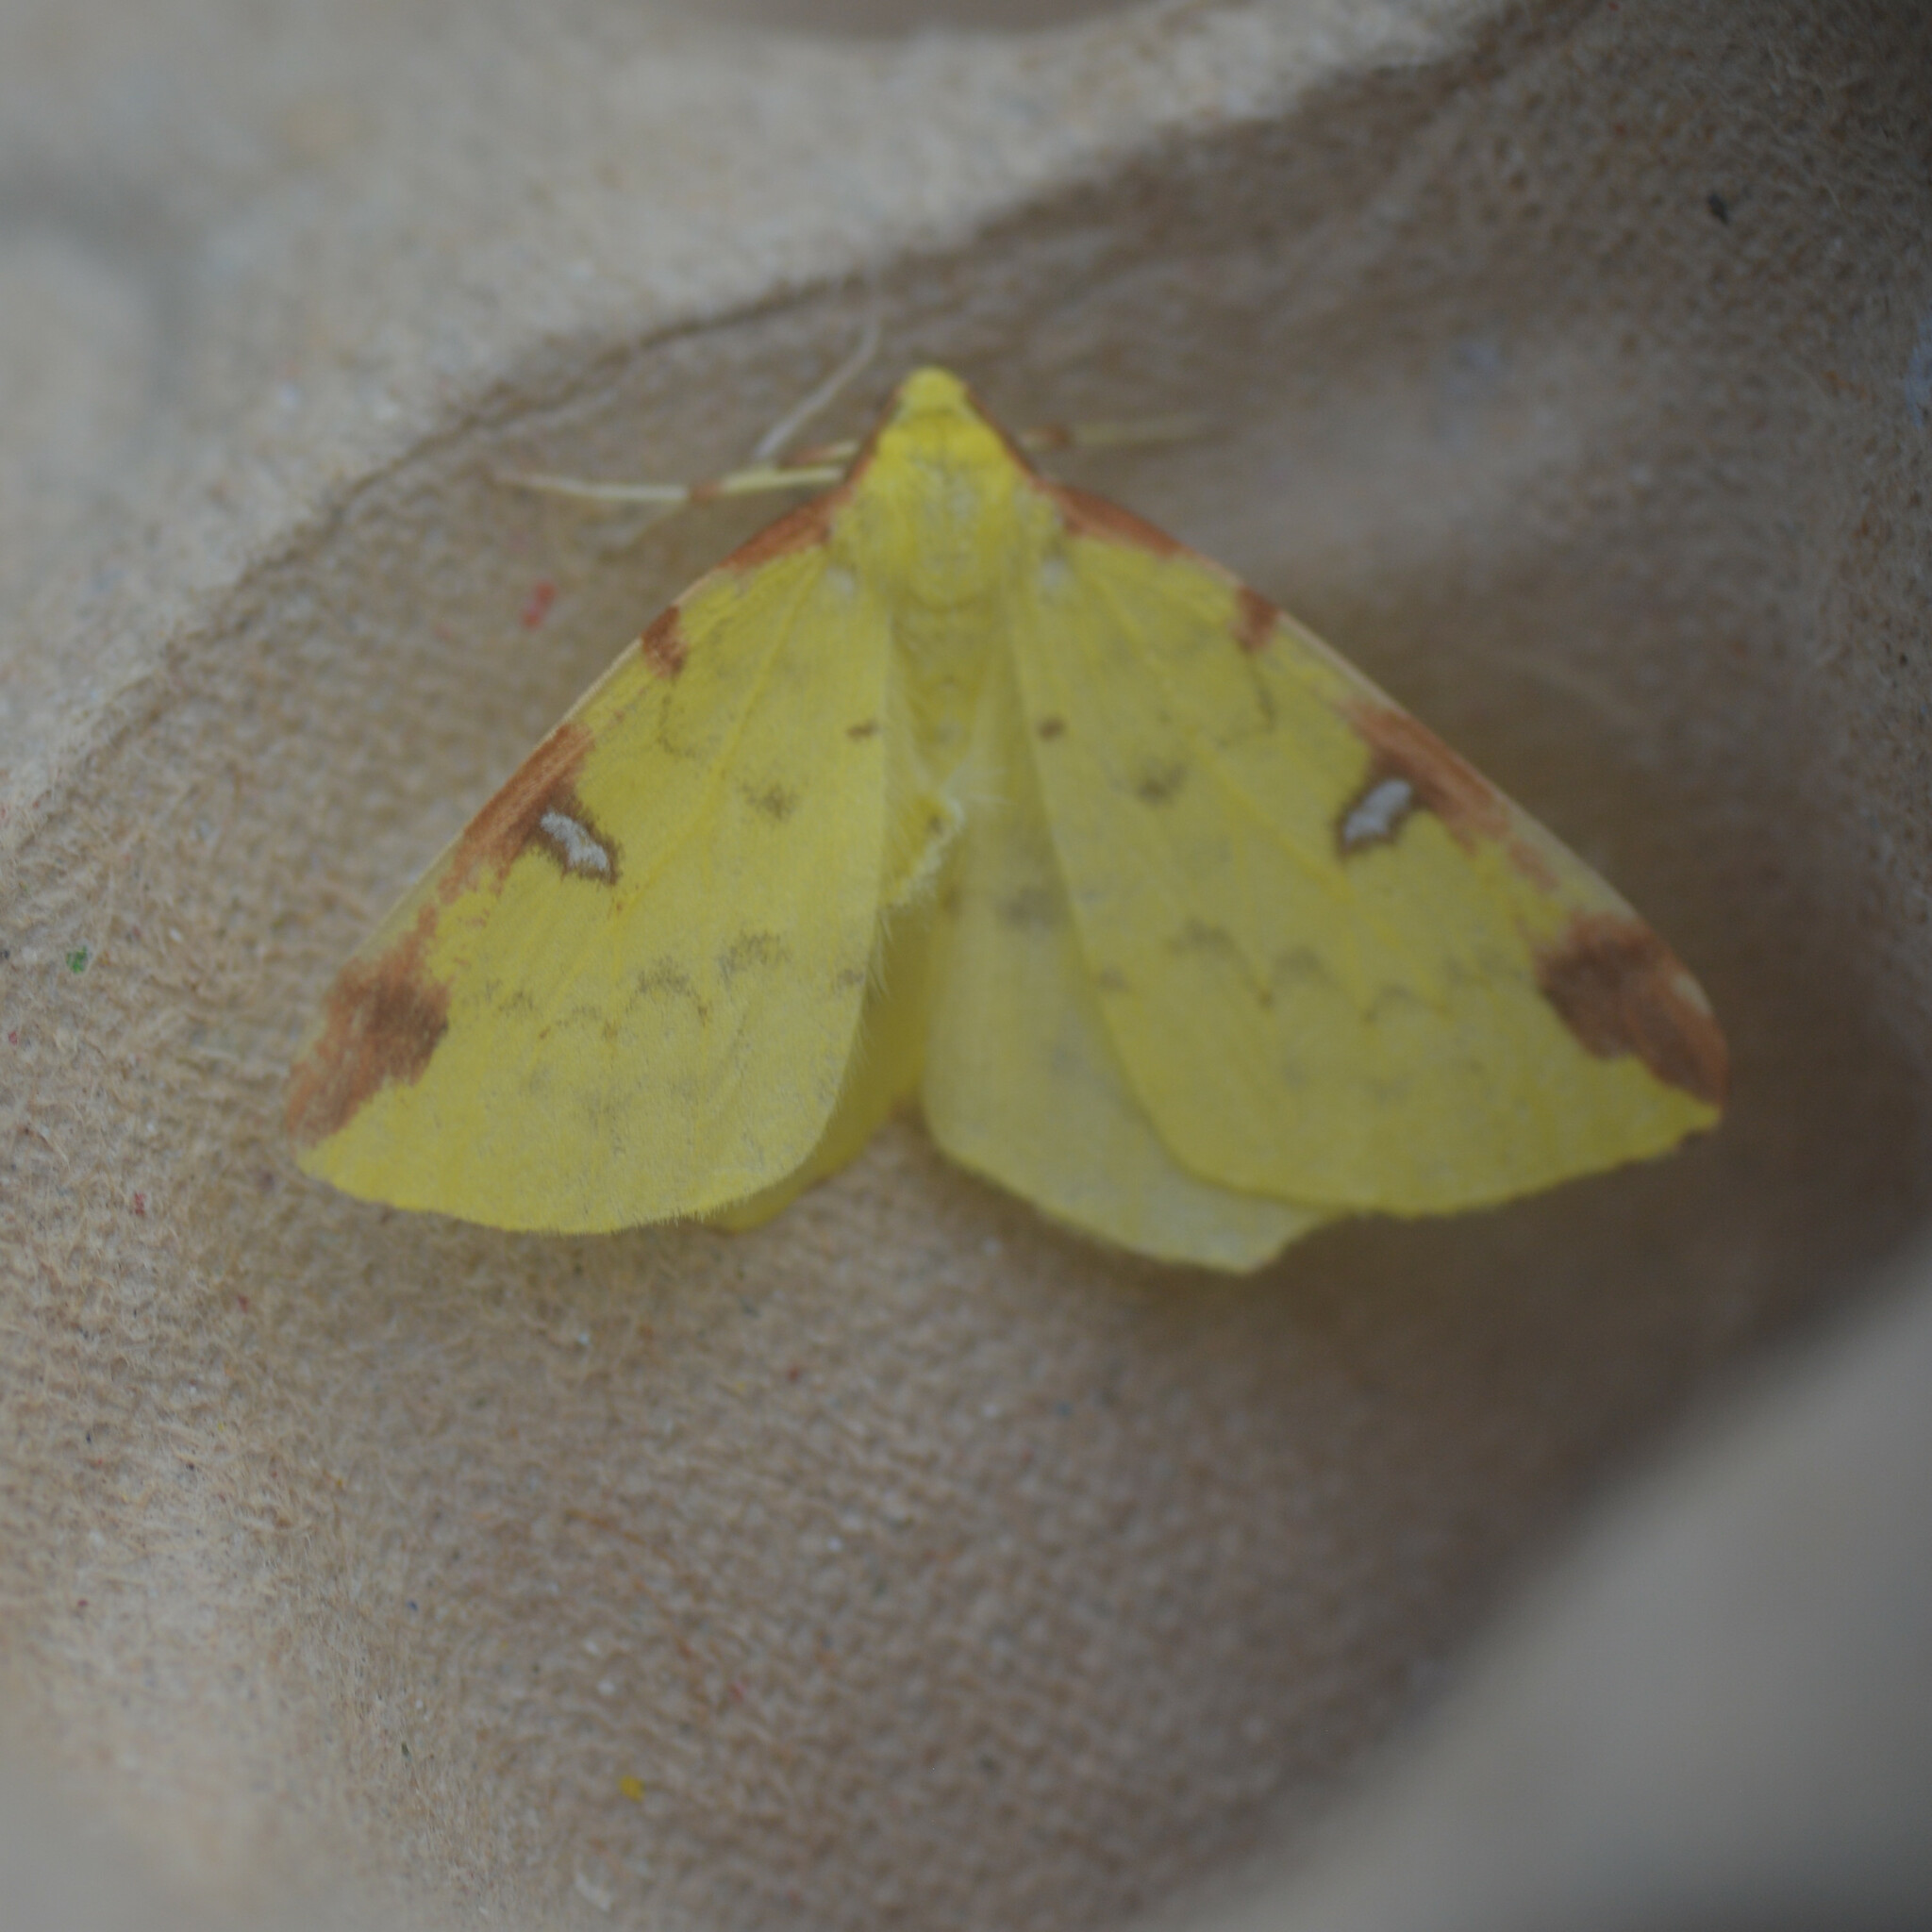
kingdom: Animalia
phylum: Arthropoda
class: Insecta
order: Lepidoptera
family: Geometridae
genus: Opisthograptis
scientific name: Opisthograptis luteolata
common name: Brimstone moth
